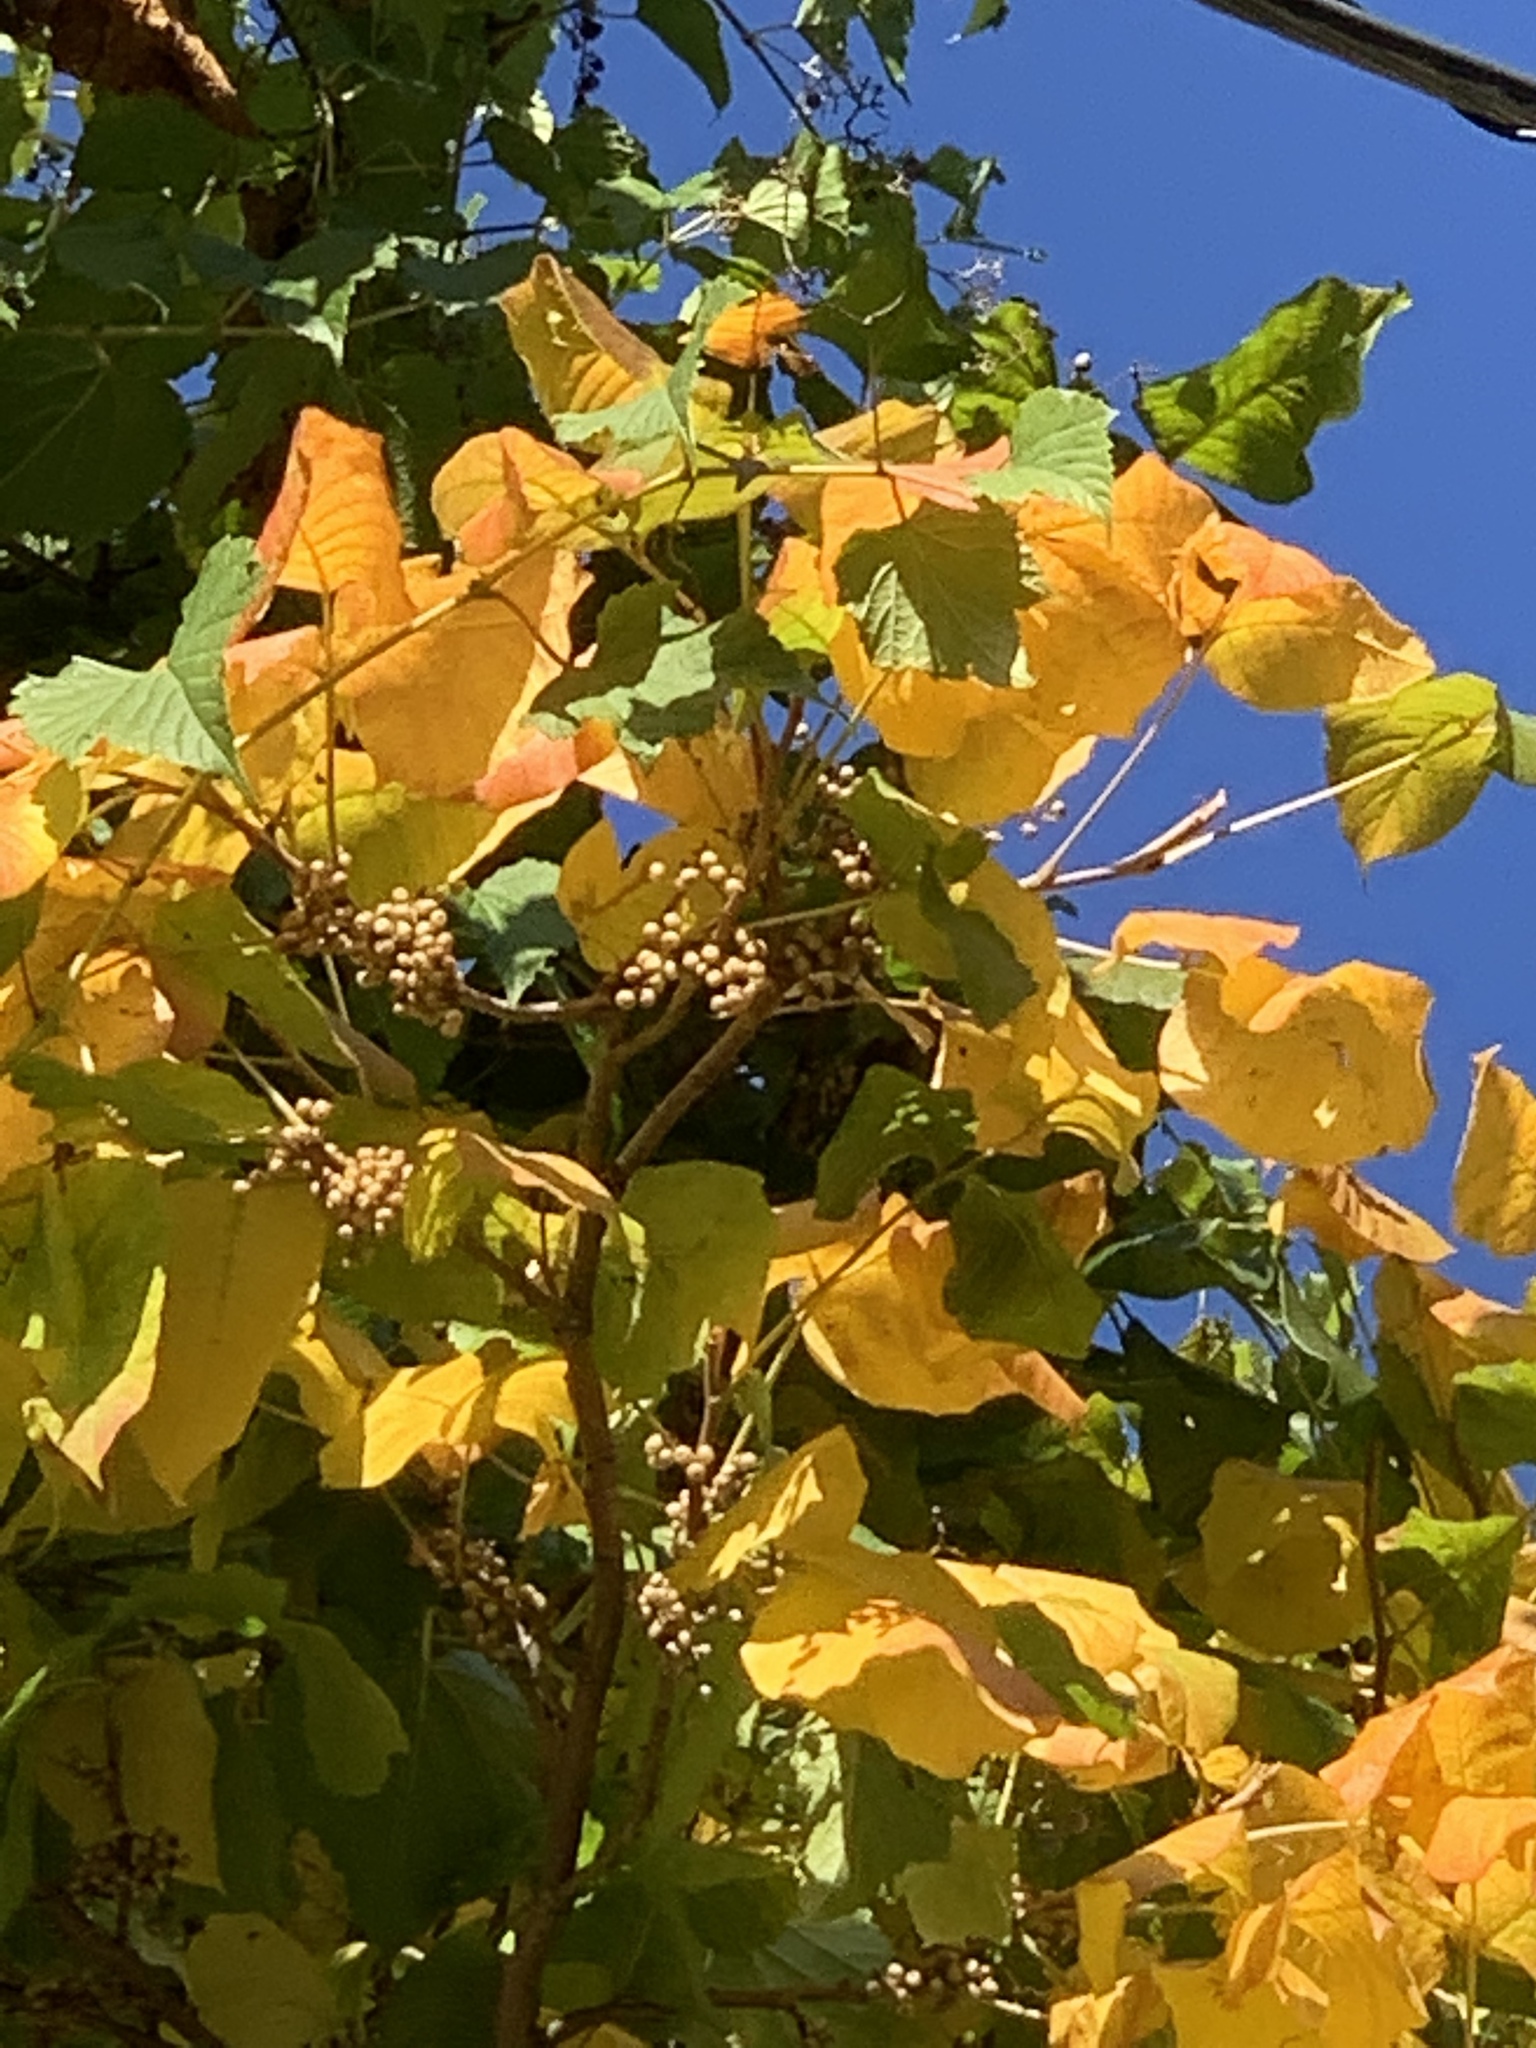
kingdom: Plantae
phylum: Tracheophyta
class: Magnoliopsida
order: Sapindales
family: Anacardiaceae
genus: Toxicodendron
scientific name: Toxicodendron radicans
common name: Poison ivy
